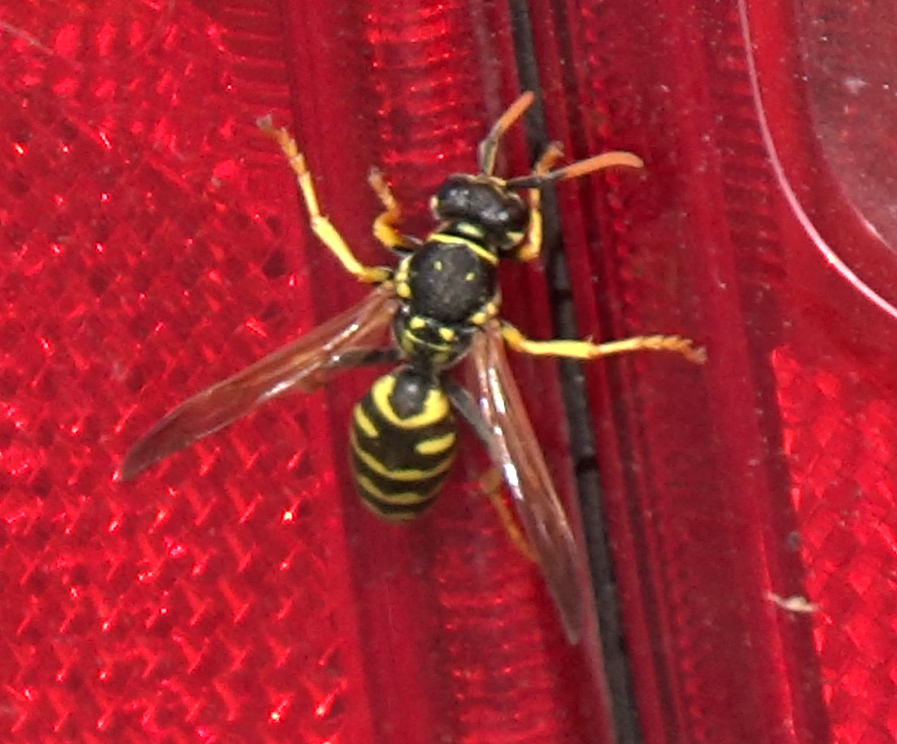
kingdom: Animalia
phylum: Arthropoda
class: Insecta
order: Hymenoptera
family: Eumenidae
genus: Polistes
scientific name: Polistes dominula
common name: Paper wasp
